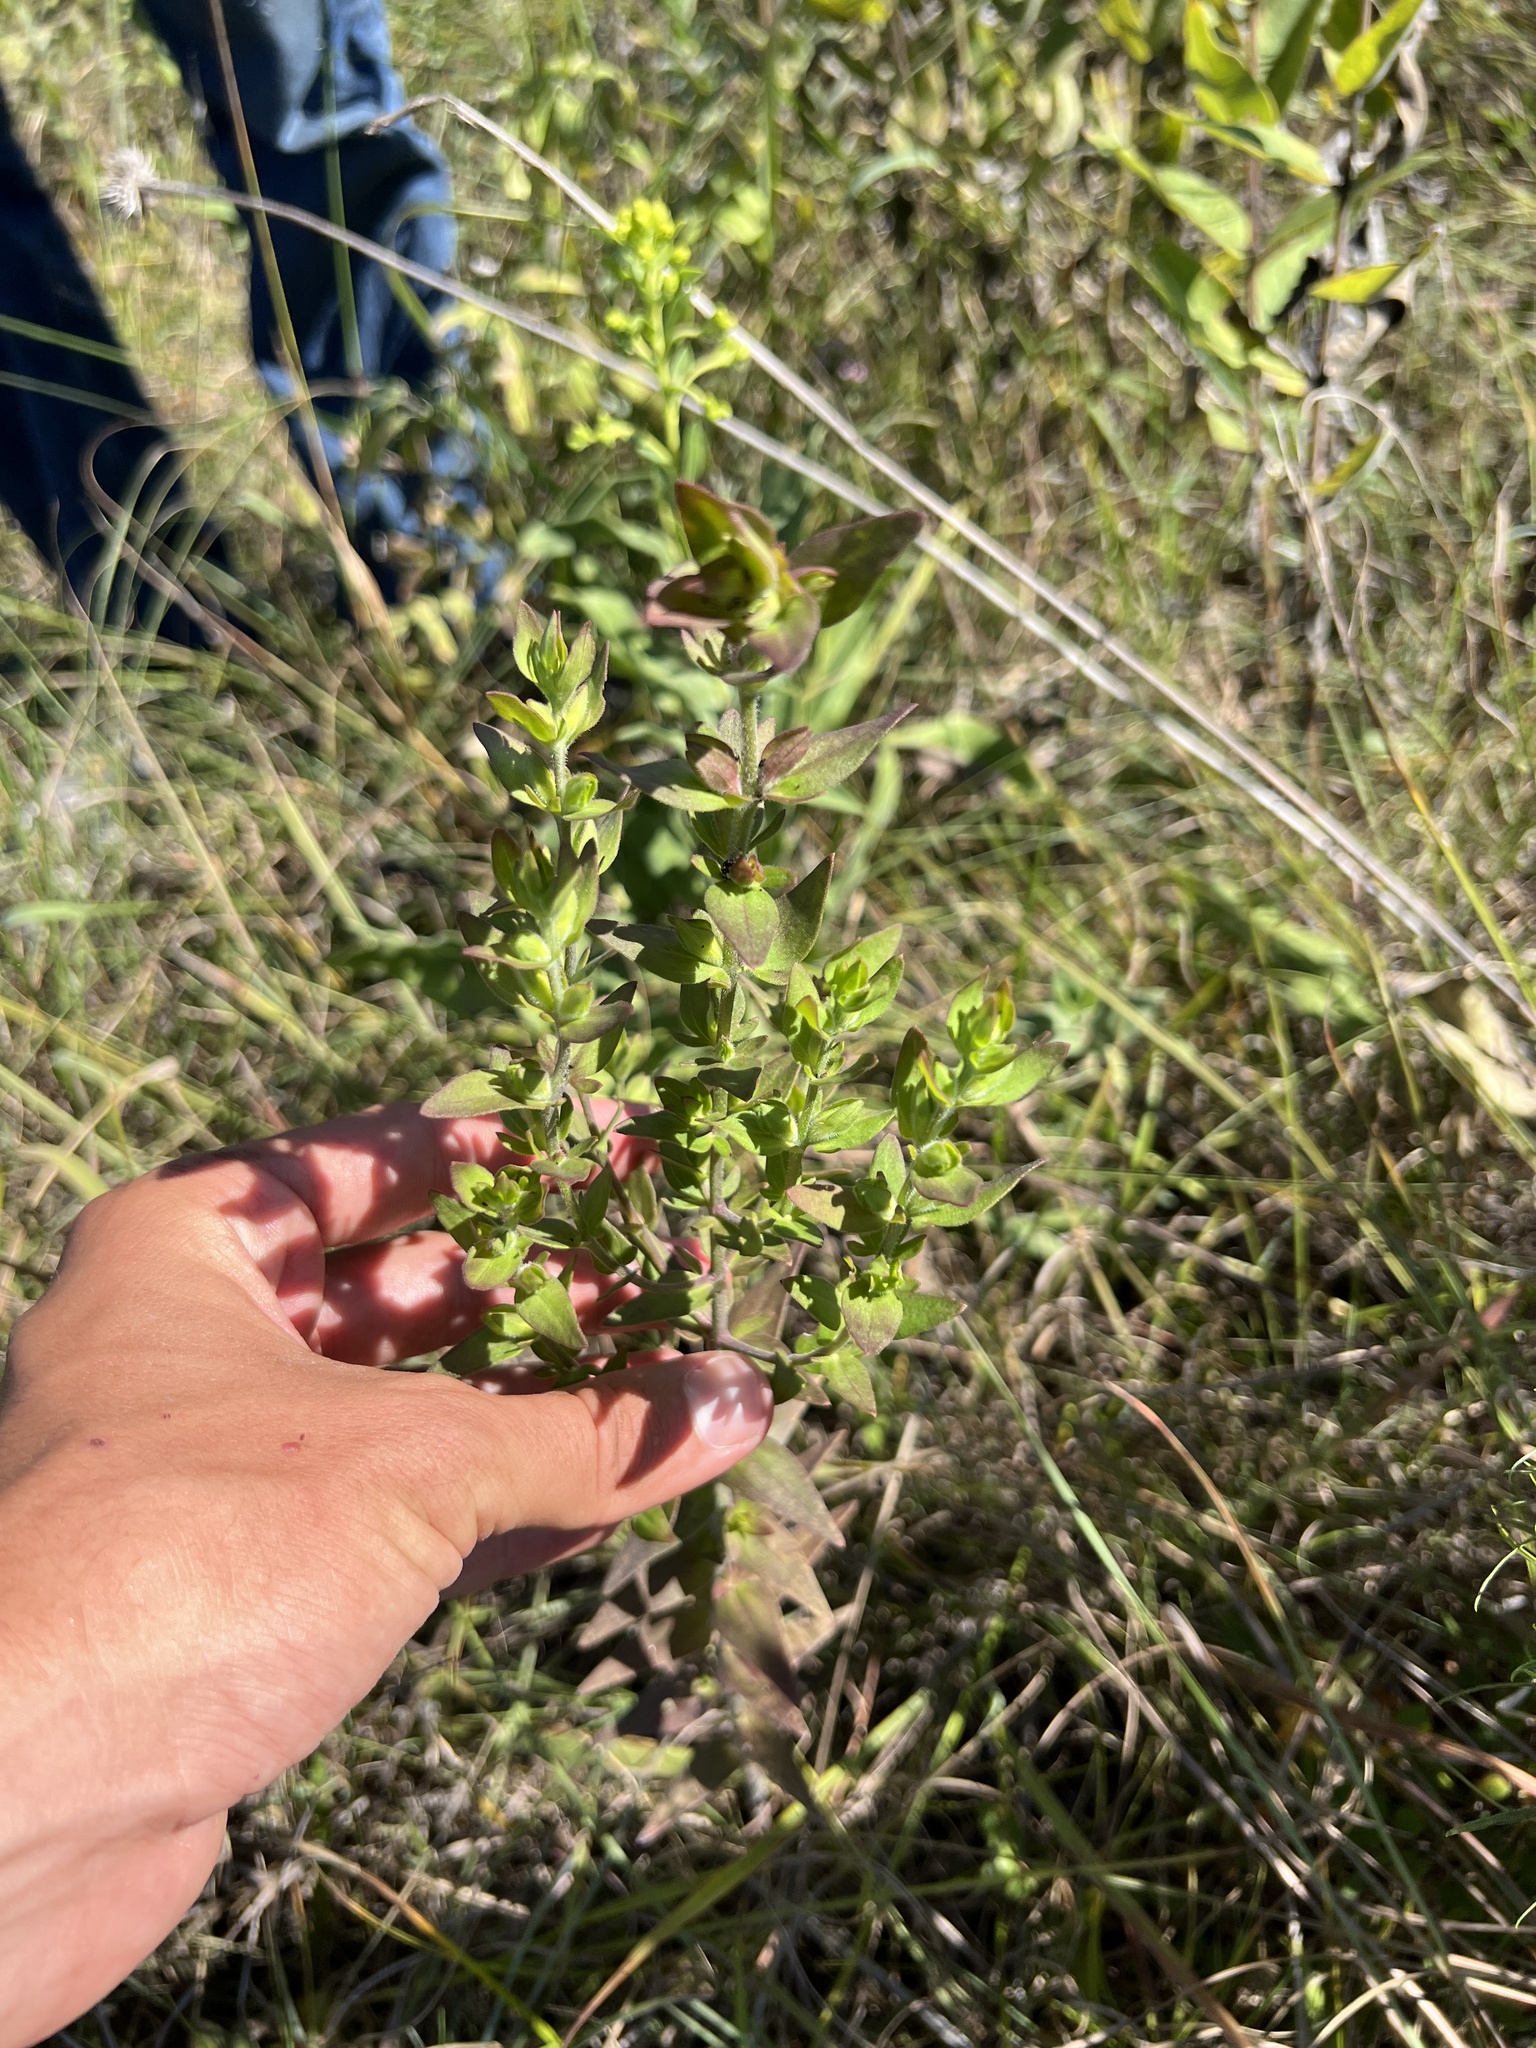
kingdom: Plantae
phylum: Tracheophyta
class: Magnoliopsida
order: Lamiales
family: Orobanchaceae
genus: Agalinis
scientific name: Agalinis auriculata
